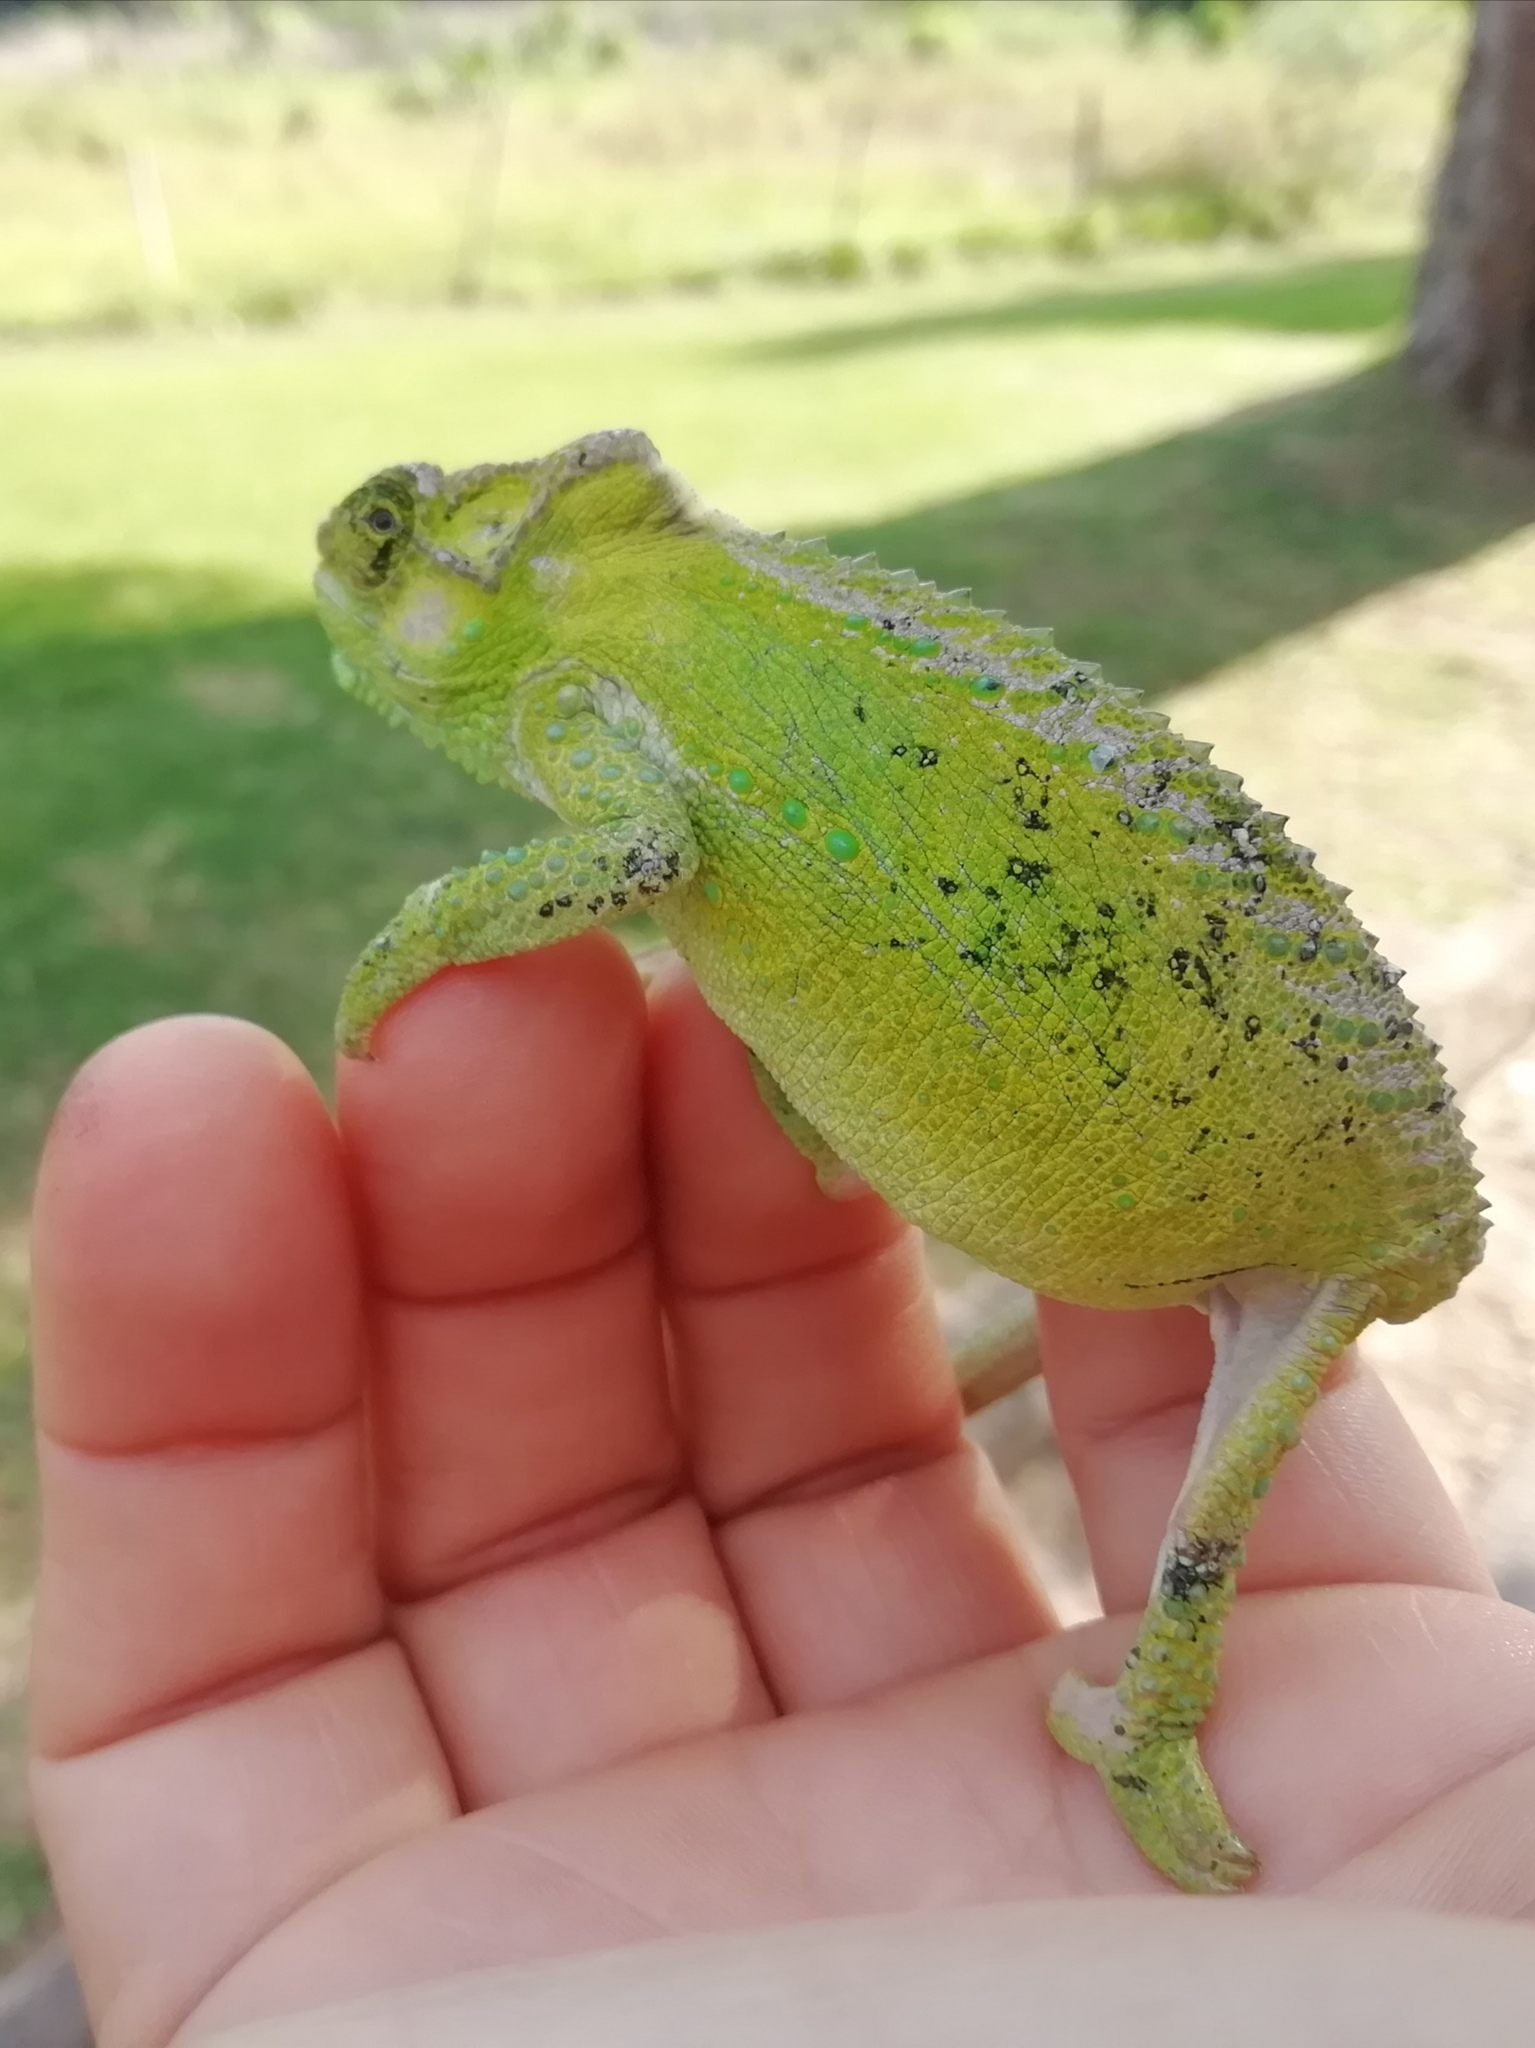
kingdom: Animalia
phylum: Chordata
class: Squamata
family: Chamaeleonidae
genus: Bradypodion
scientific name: Bradypodion damaranum
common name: Knysna dwarf chameleon
